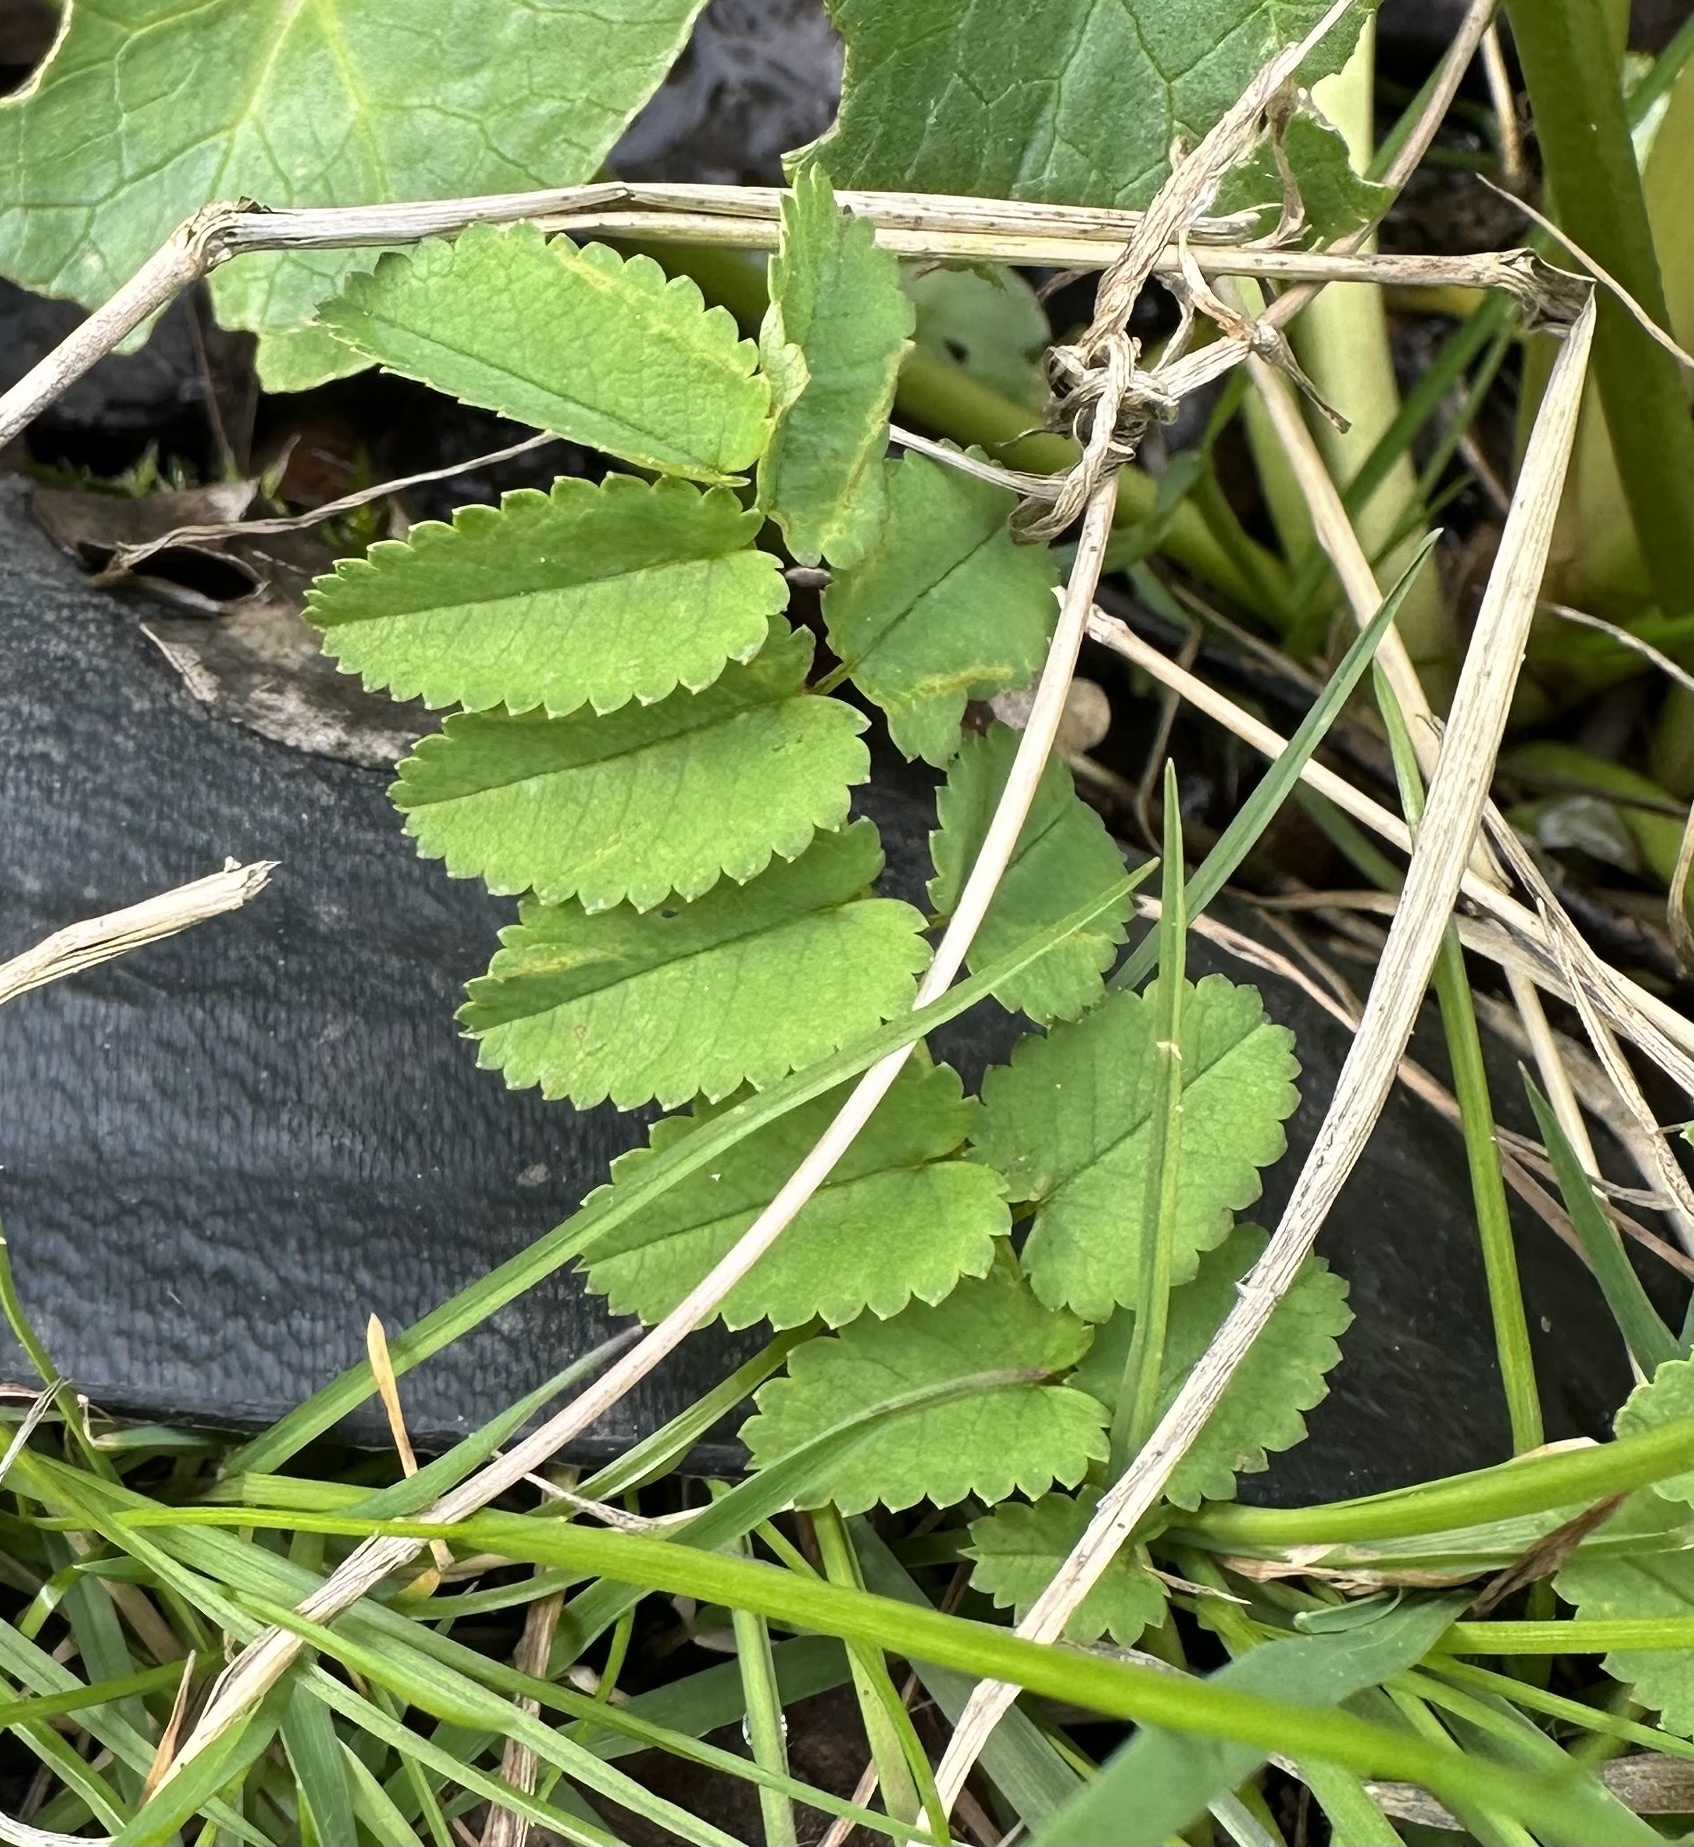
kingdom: Plantae
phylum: Tracheophyta
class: Magnoliopsida
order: Rosales
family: Rosaceae
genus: Sanguisorba
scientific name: Sanguisorba officinalis
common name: Great burnet
